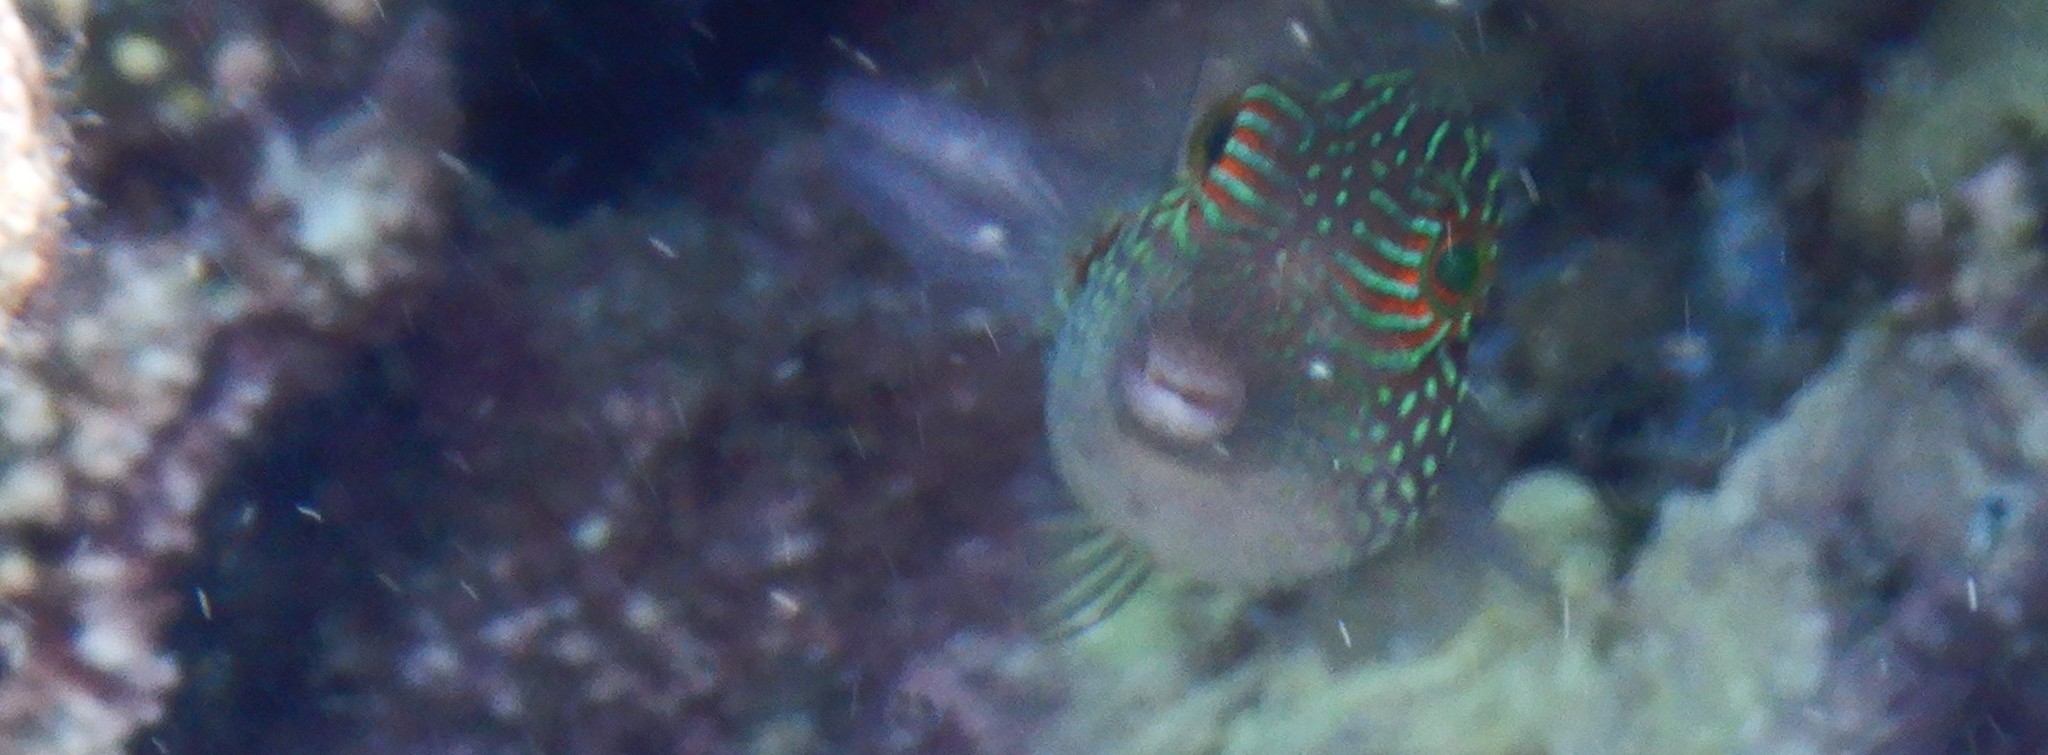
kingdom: Animalia
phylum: Chordata
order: Tetraodontiformes
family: Tetraodontidae
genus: Canthigaster
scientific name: Canthigaster janthinoptera
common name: Honeycomb toby
